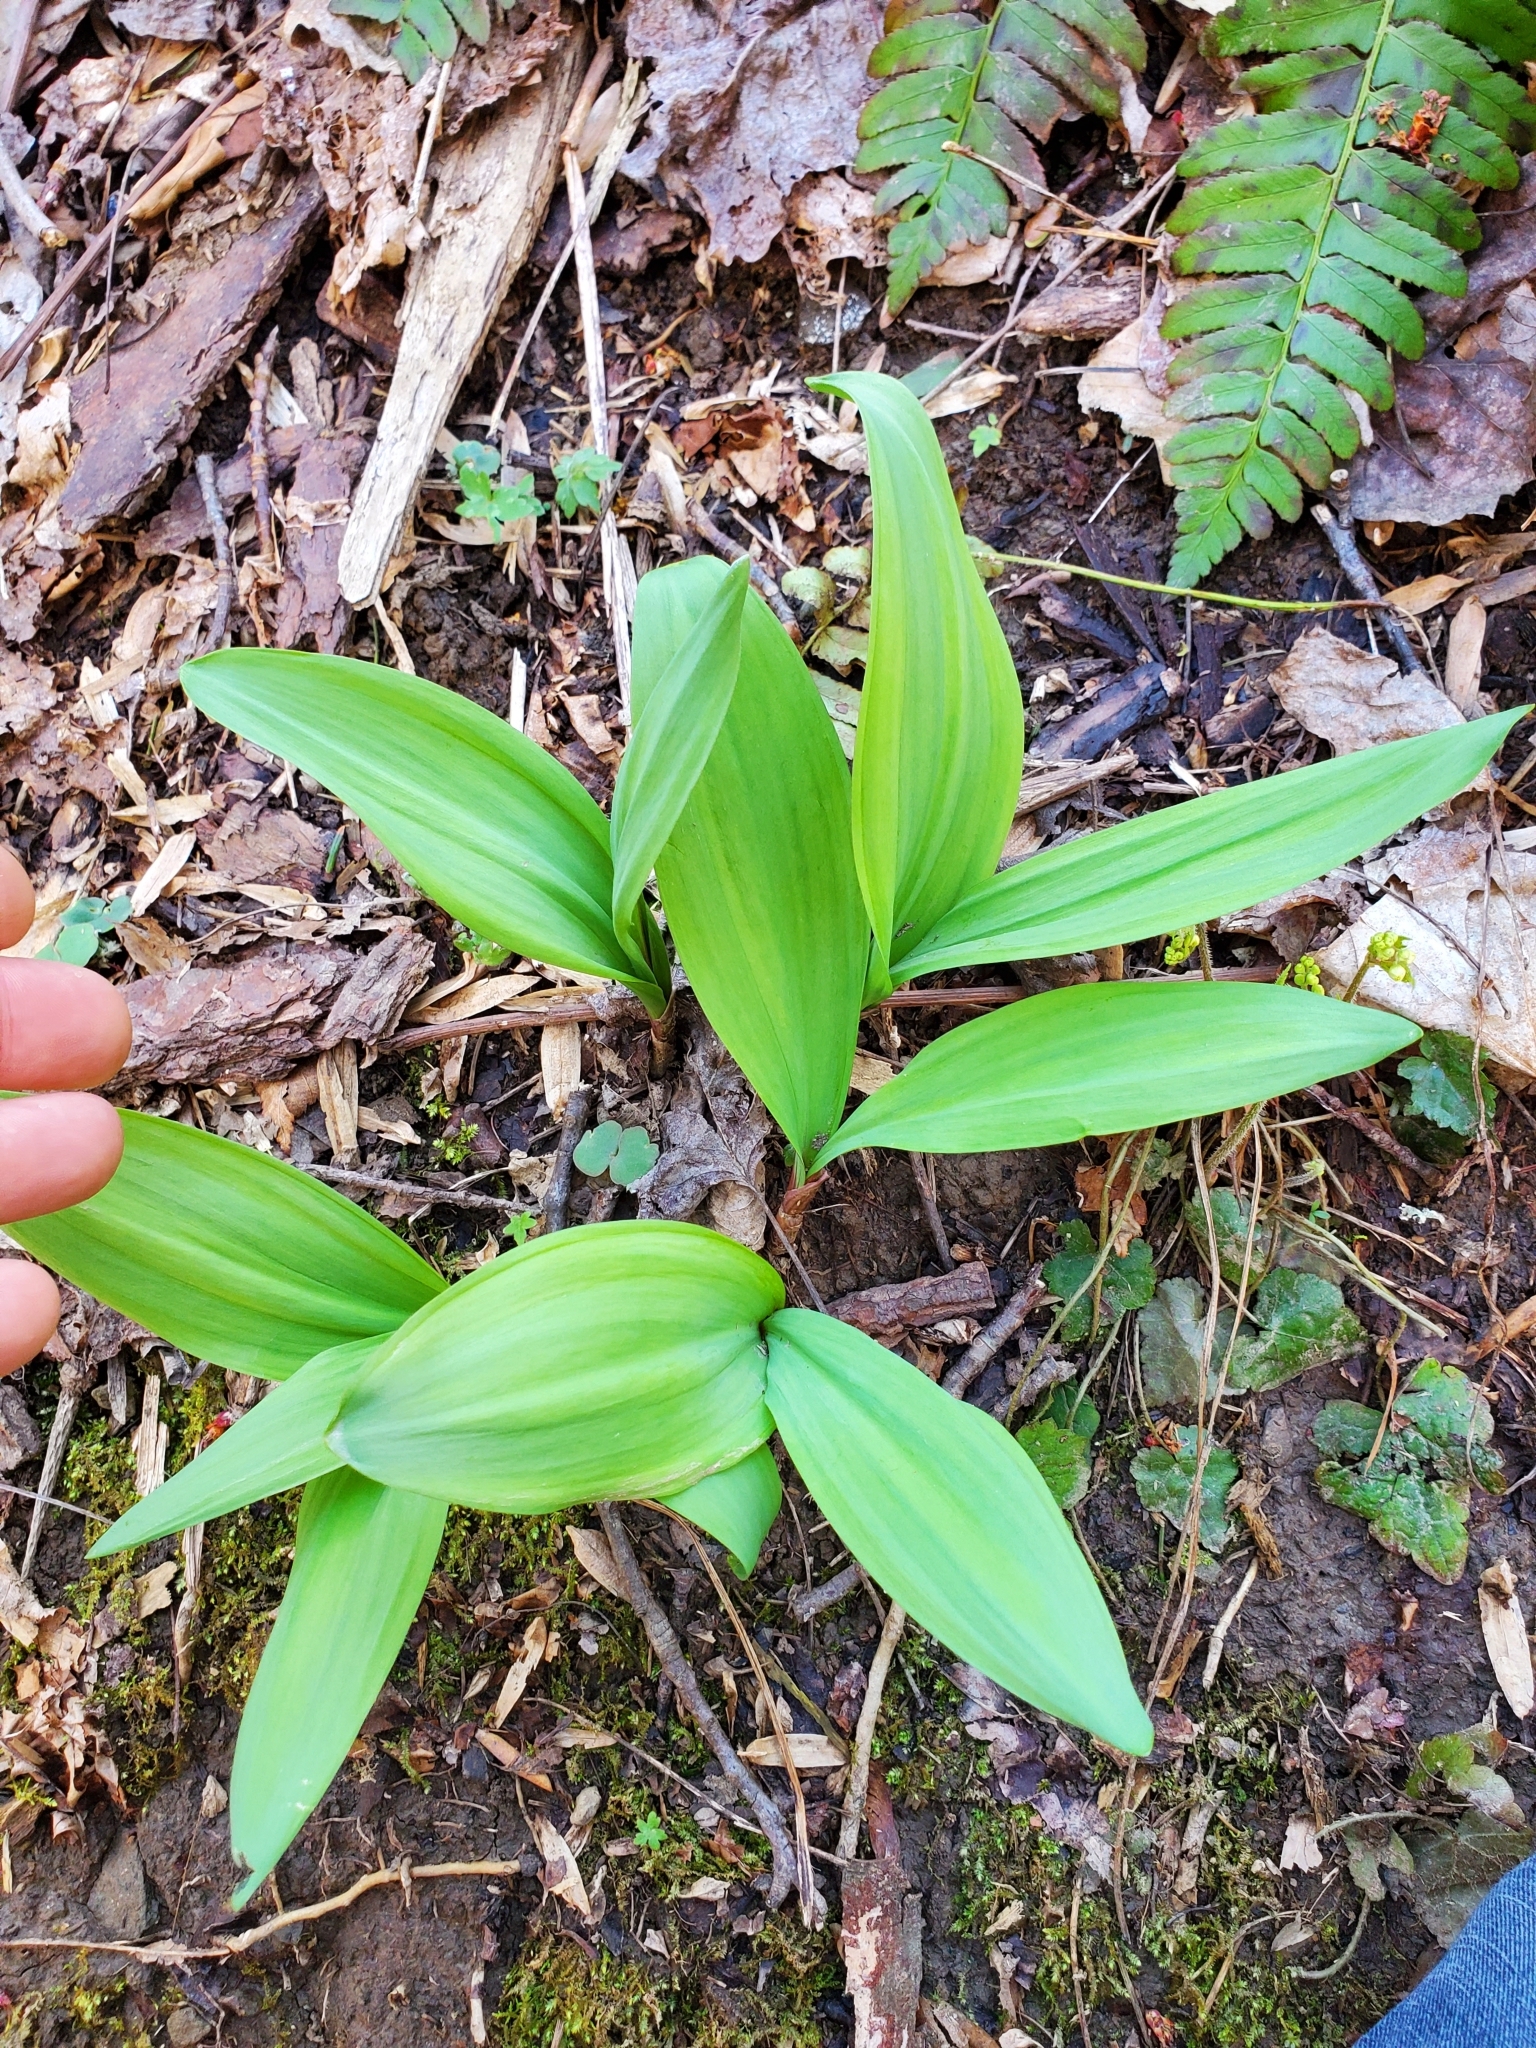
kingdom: Plantae
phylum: Tracheophyta
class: Liliopsida
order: Asparagales
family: Amaryllidaceae
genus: Allium
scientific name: Allium tricoccum
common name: Ramp
